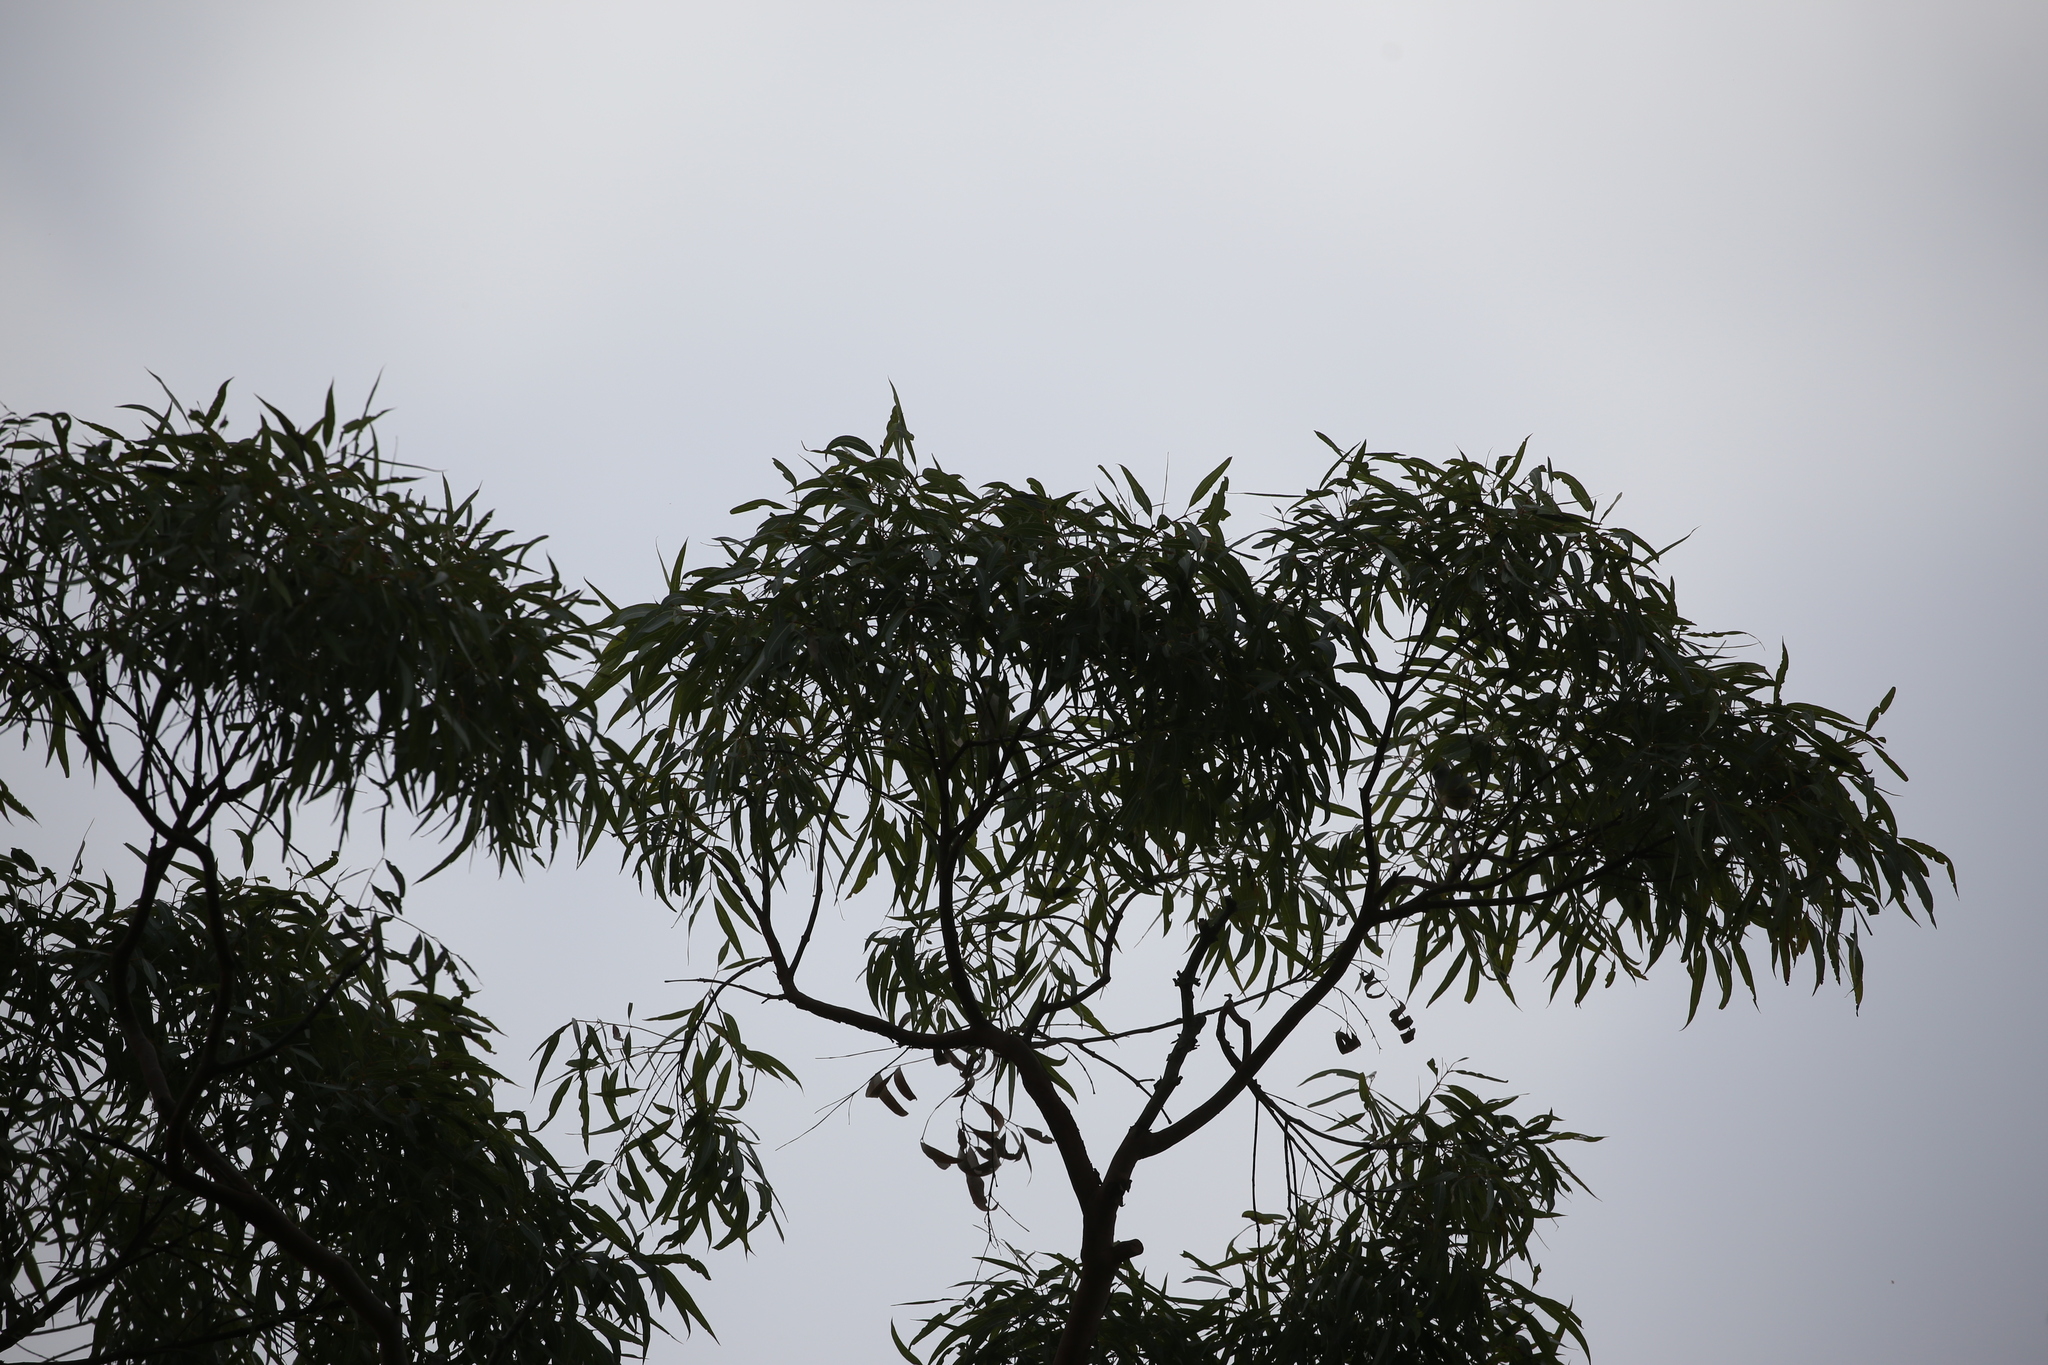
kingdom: Animalia
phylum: Chordata
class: Aves
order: Passeriformes
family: Zosteropidae
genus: Zosterops
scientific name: Zosterops lateralis
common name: Silvereye
